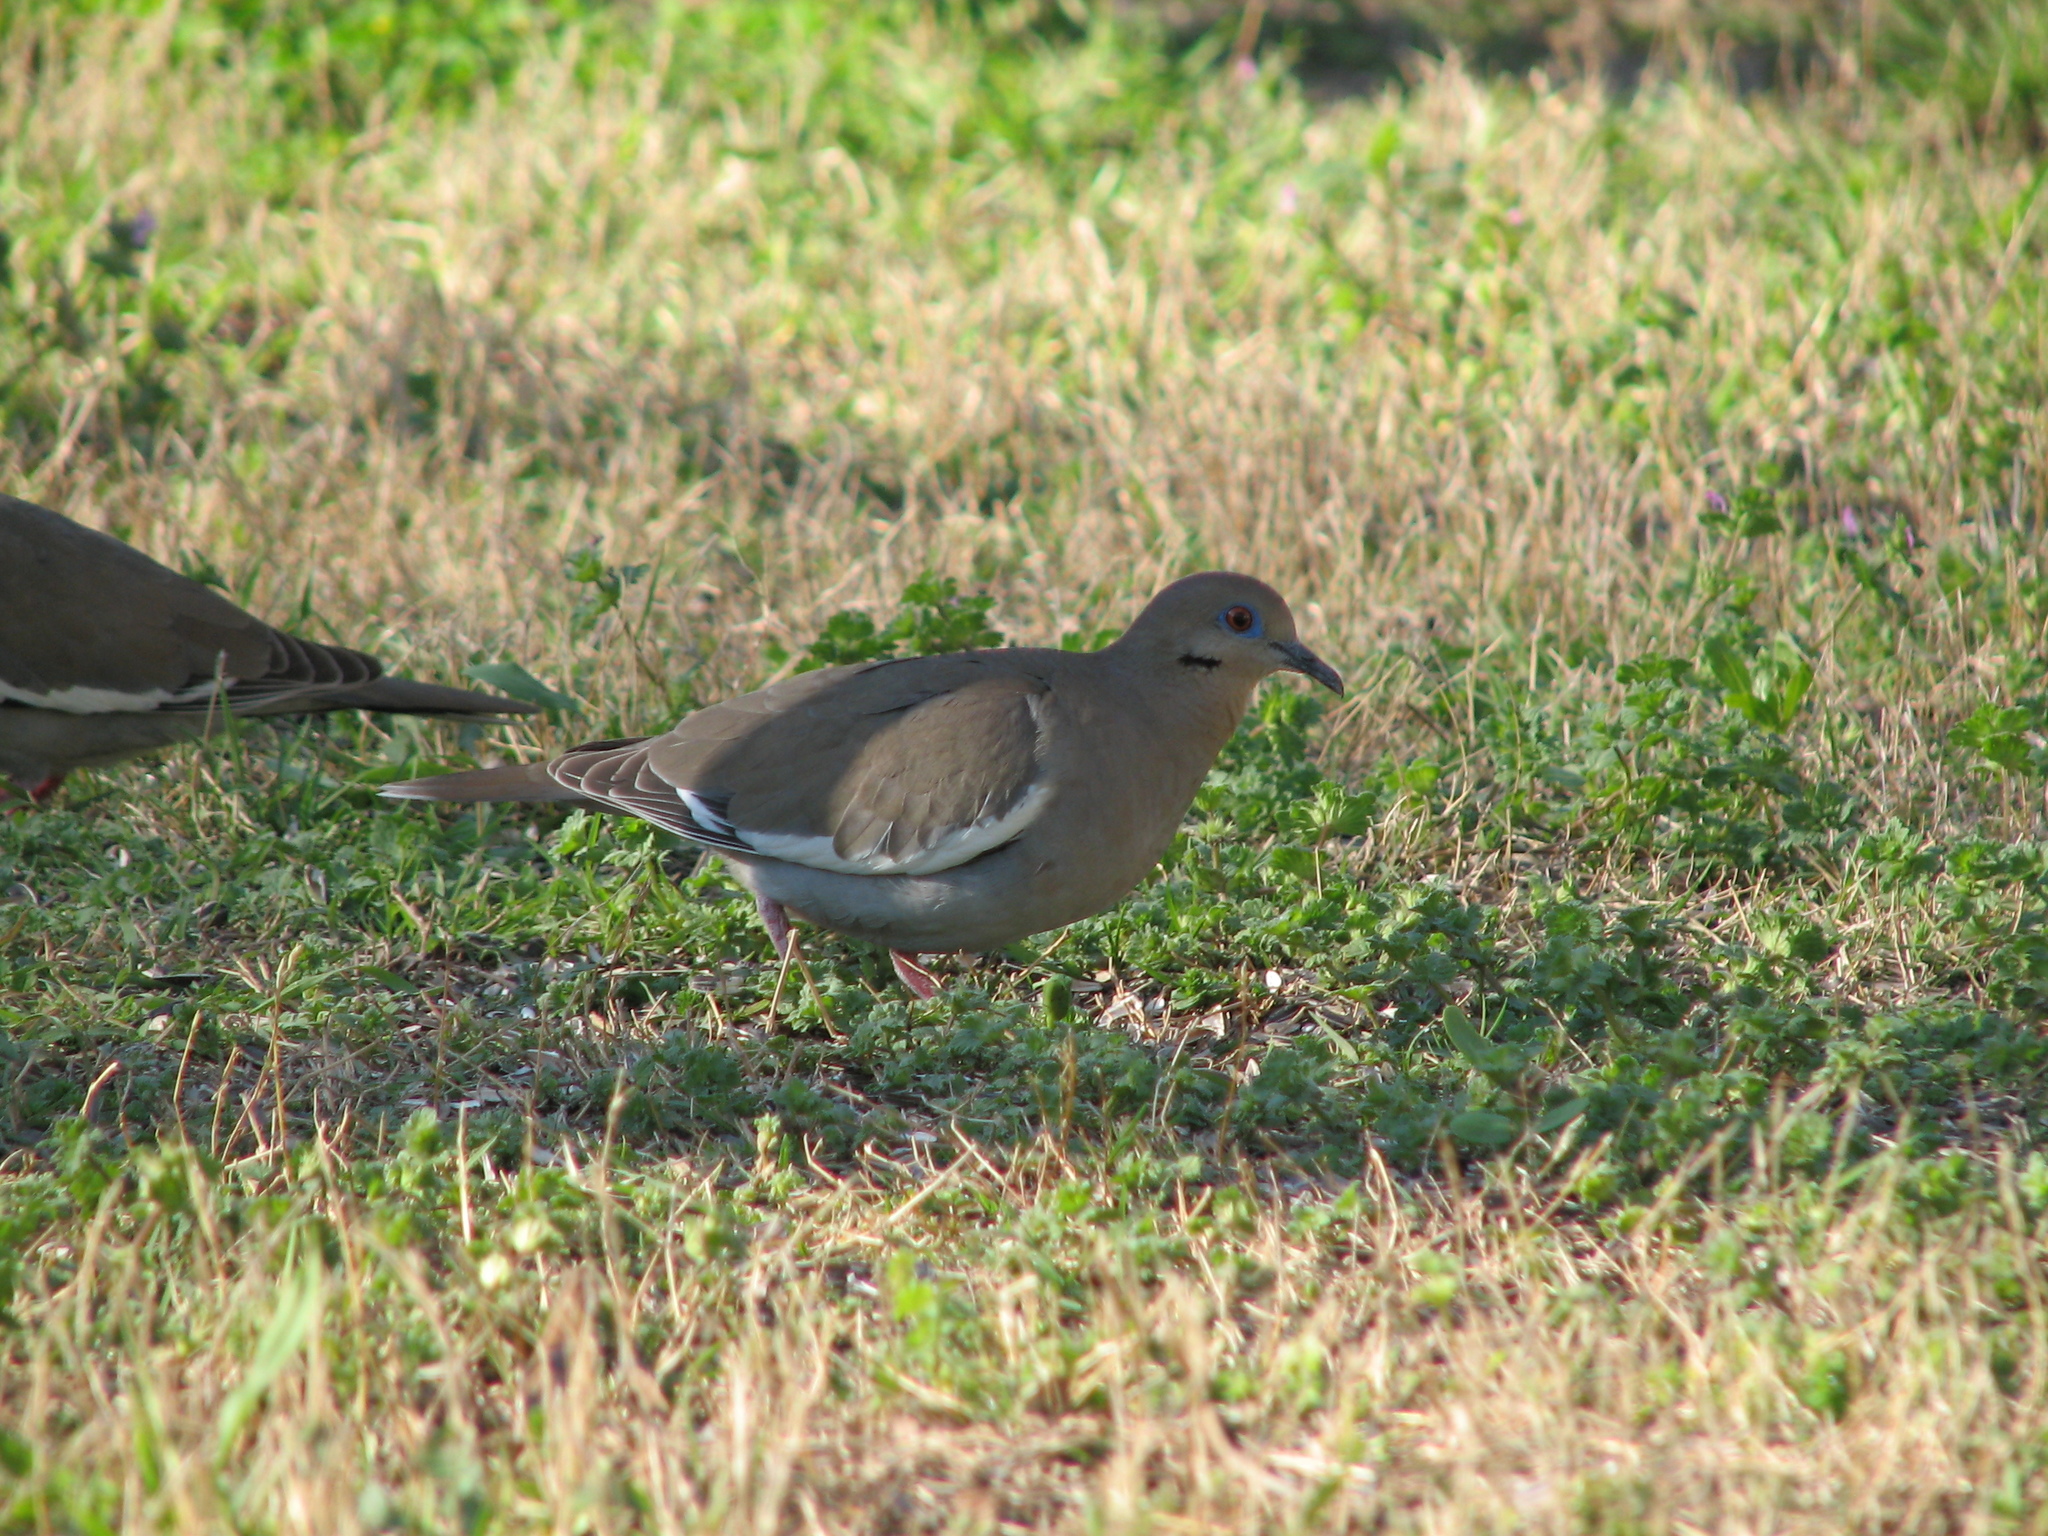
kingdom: Animalia
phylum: Chordata
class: Aves
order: Columbiformes
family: Columbidae
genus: Zenaida
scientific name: Zenaida asiatica
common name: White-winged dove
